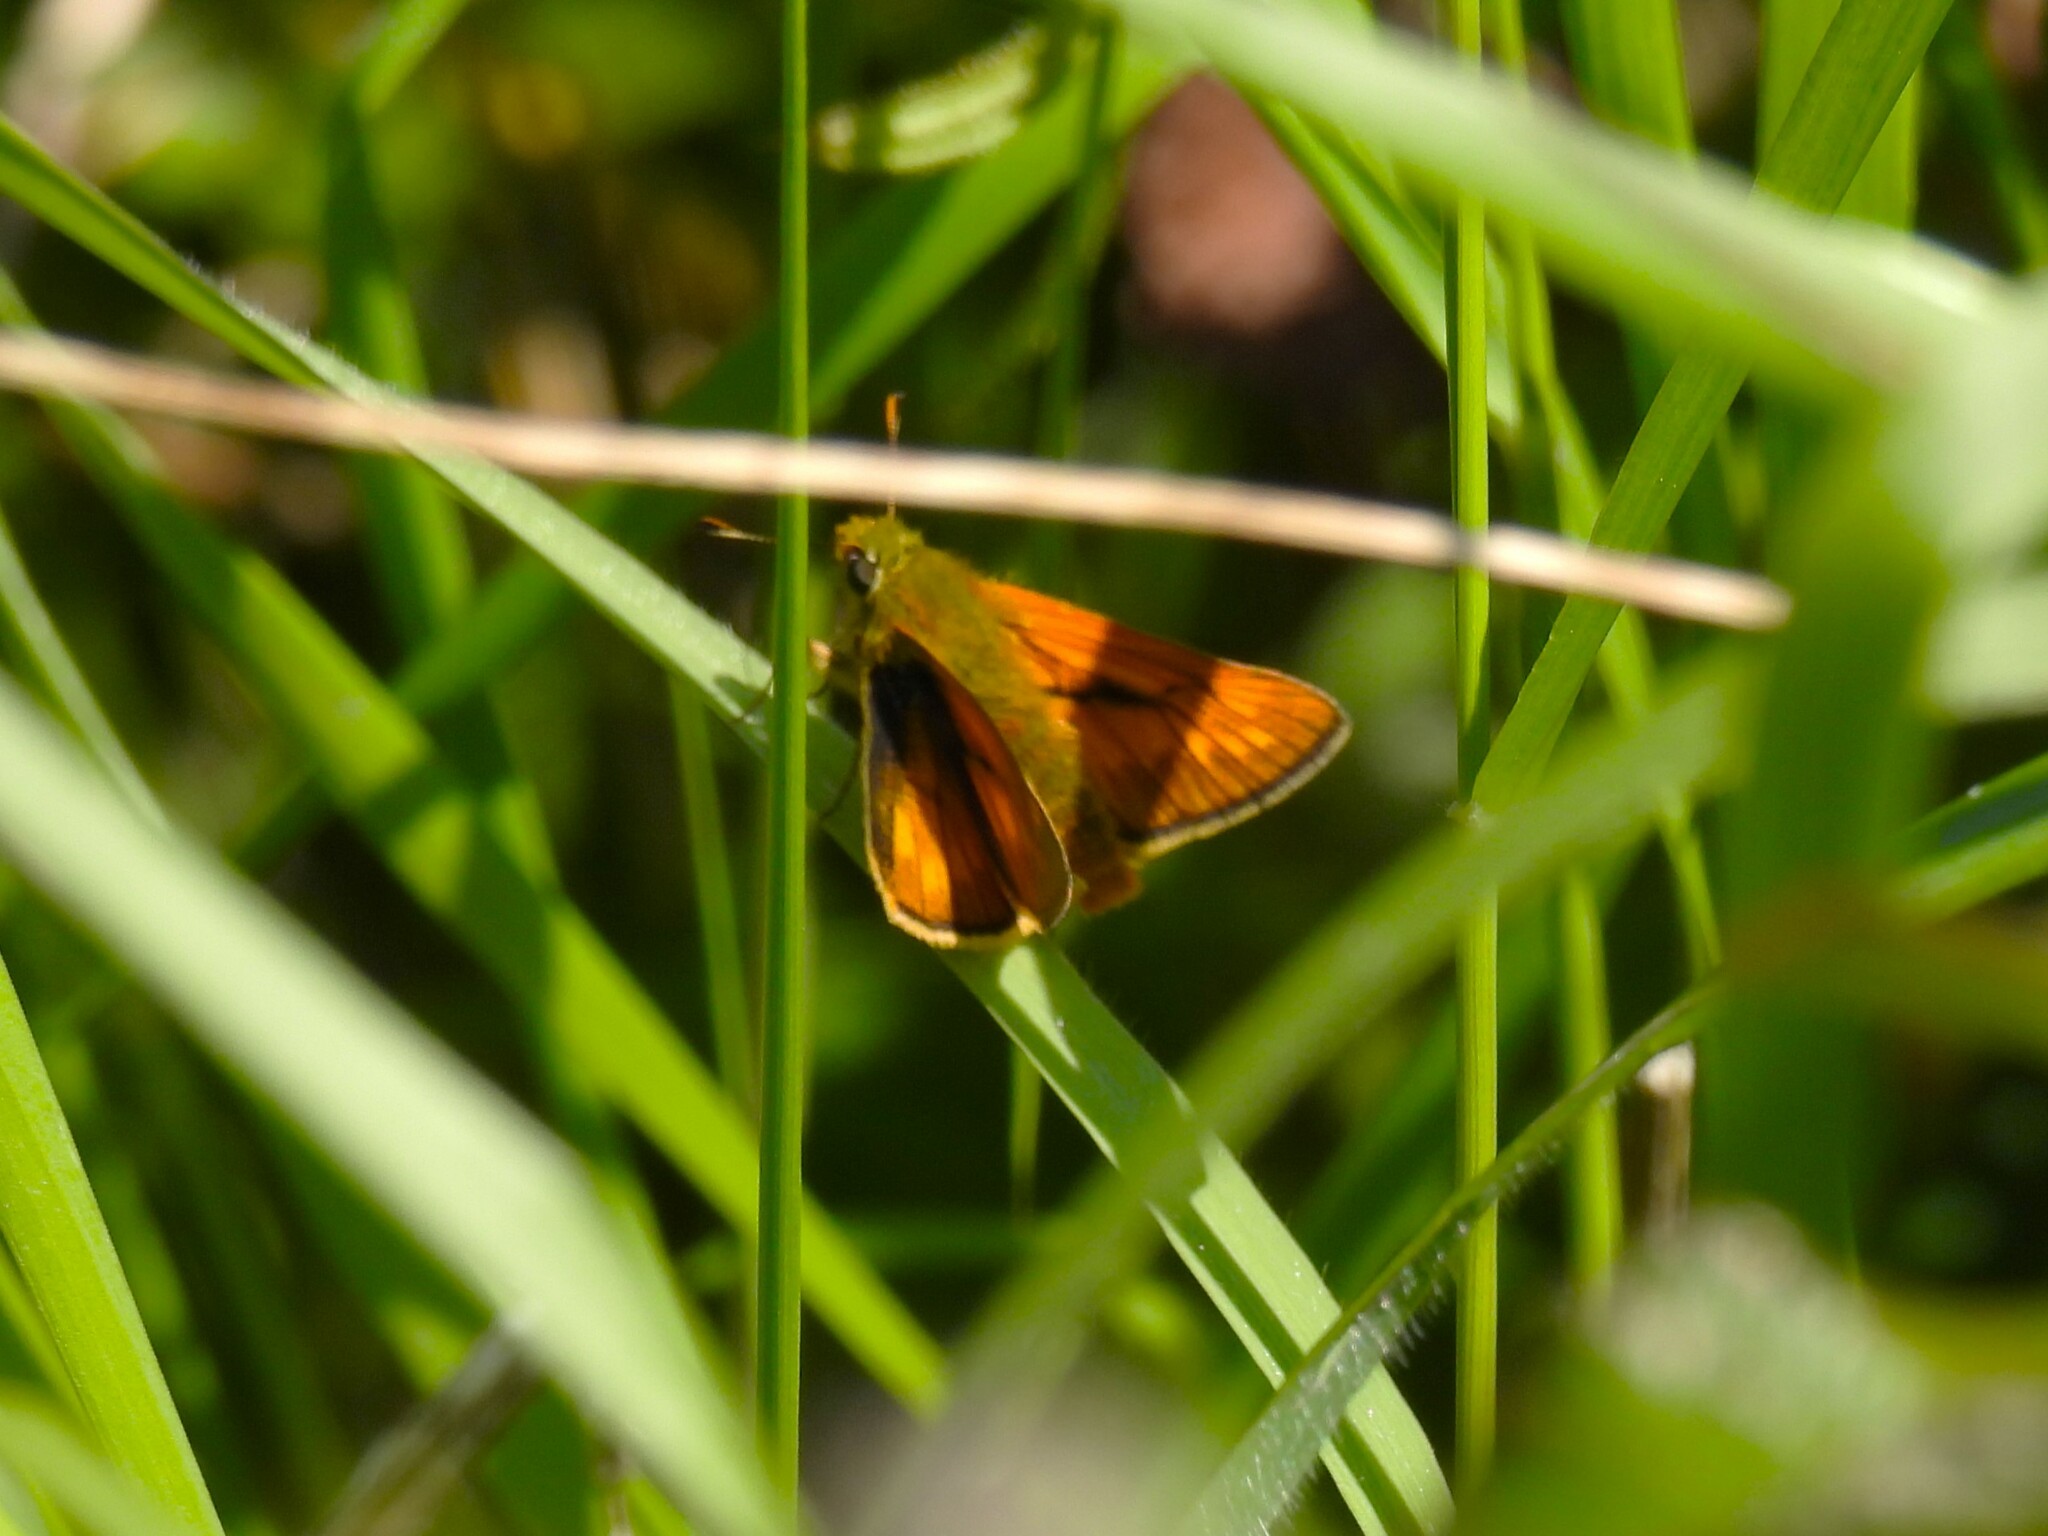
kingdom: Animalia
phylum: Arthropoda
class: Insecta
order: Lepidoptera
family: Hesperiidae
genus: Ochlodes
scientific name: Ochlodes venata
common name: Large skipper
